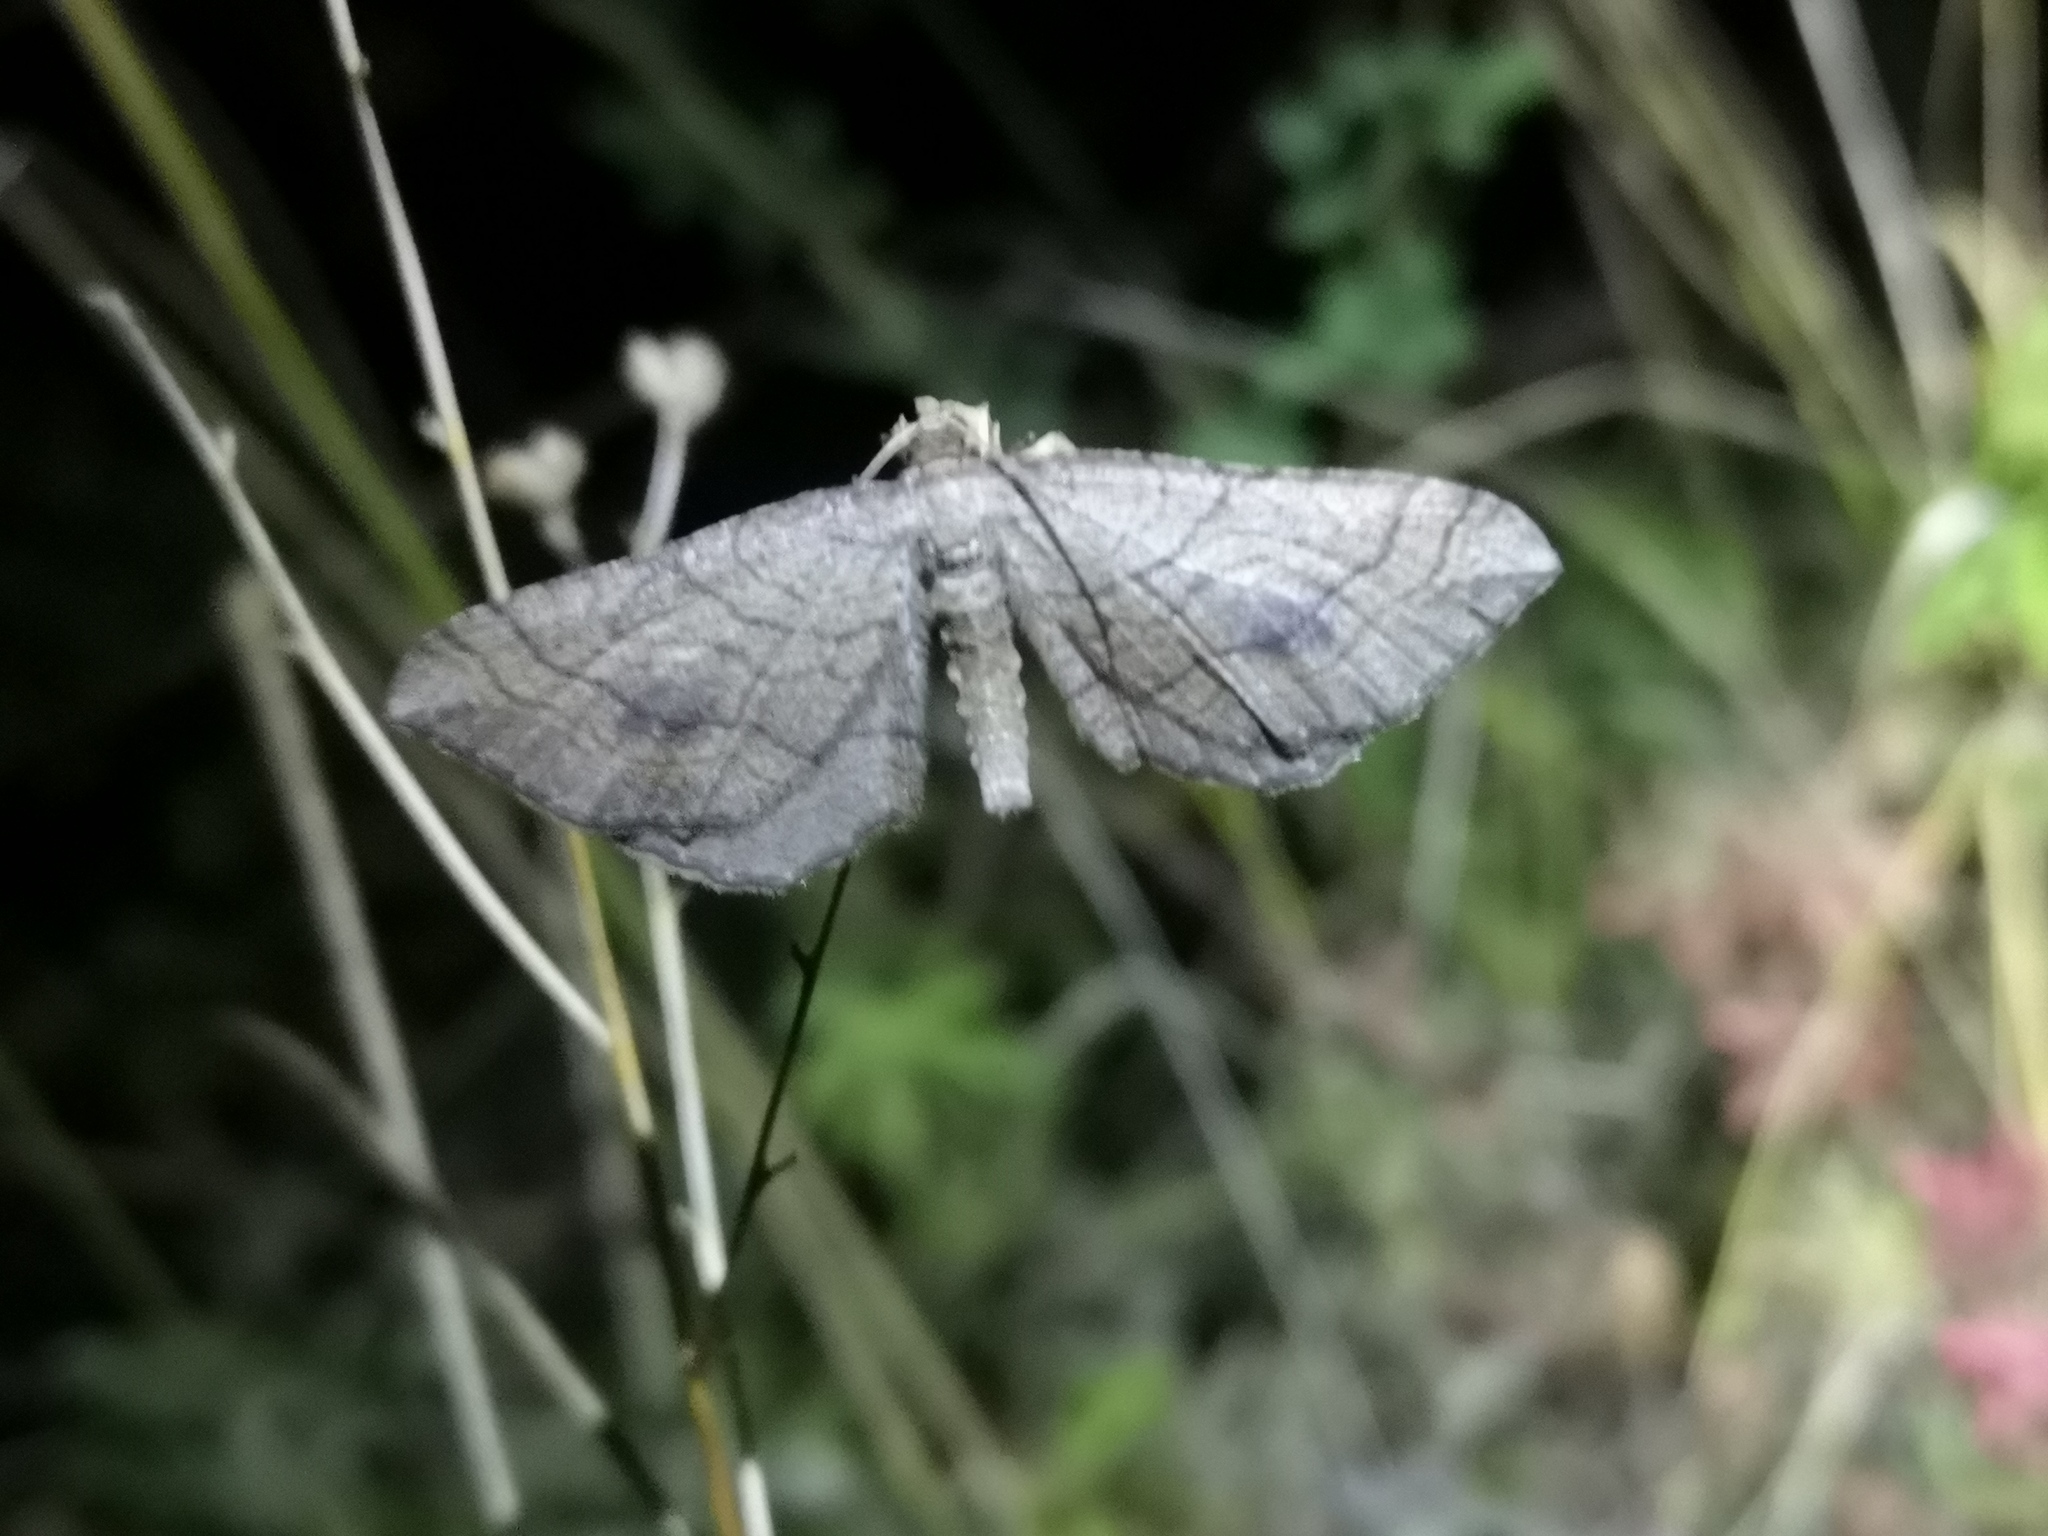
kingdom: Animalia
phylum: Arthropoda
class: Insecta
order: Lepidoptera
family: Geometridae
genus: Coenocalpe
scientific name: Coenocalpe lapidata
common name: Slender-striped rufous
